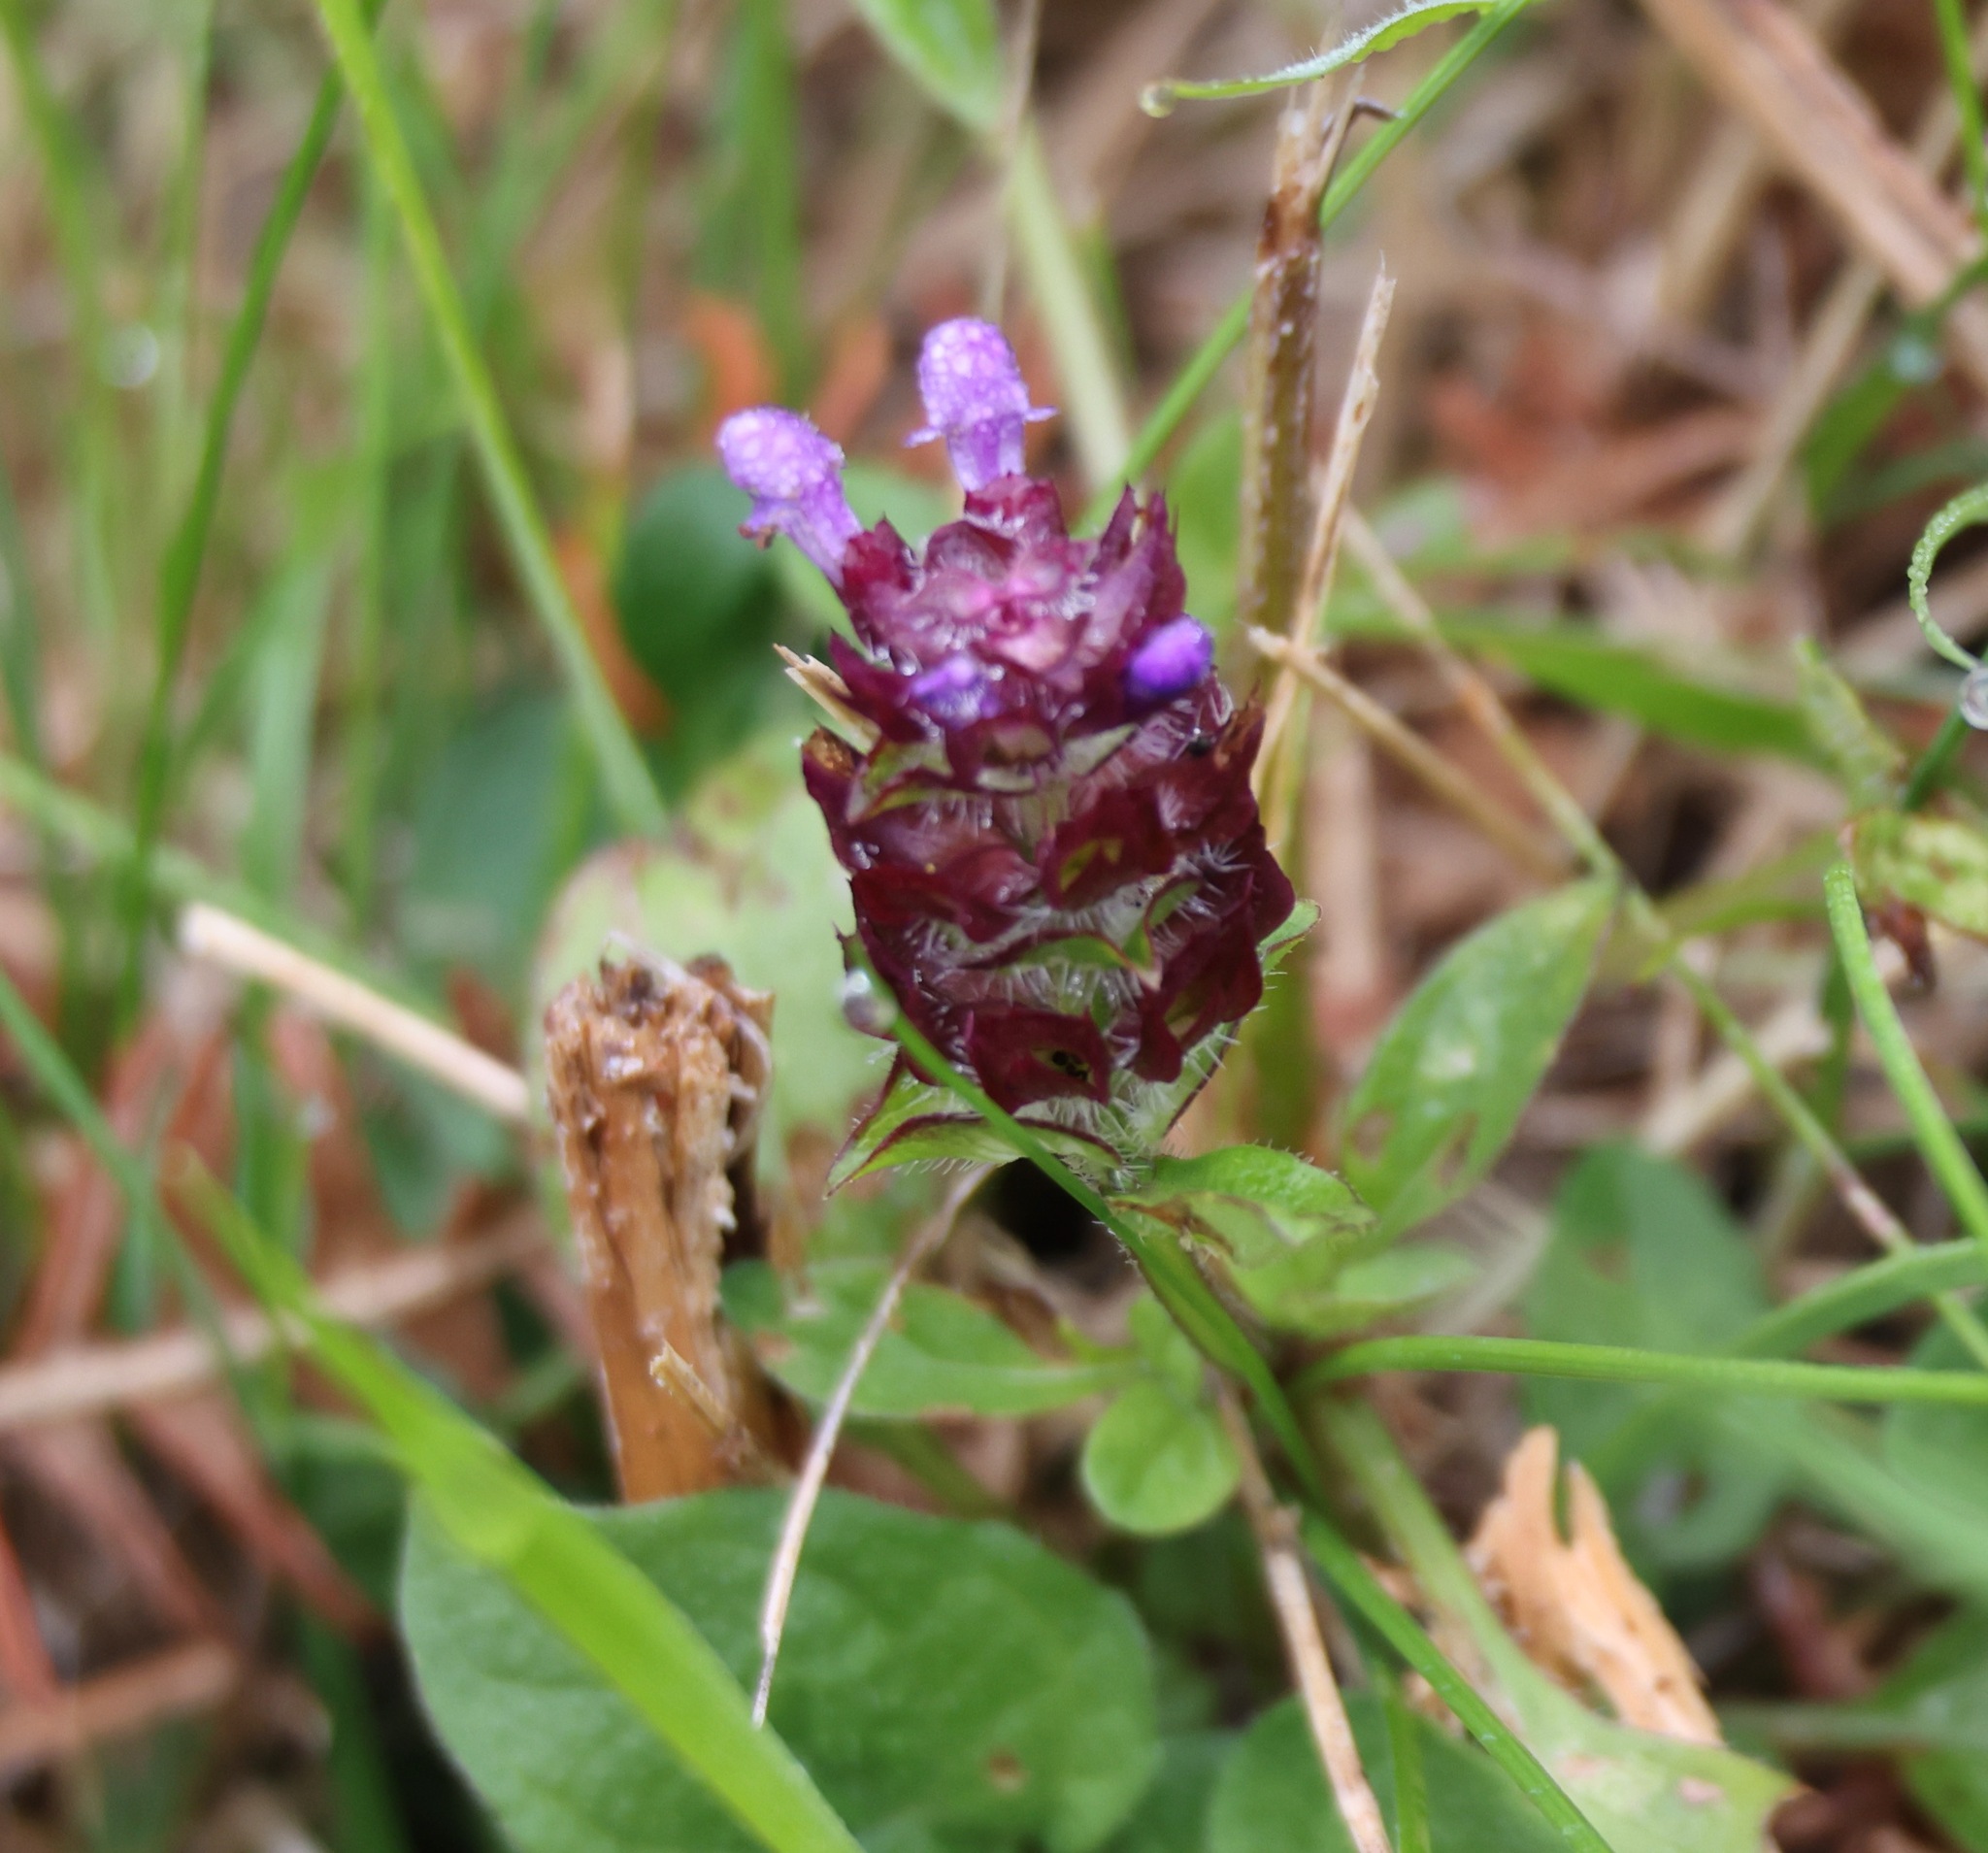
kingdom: Plantae
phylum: Tracheophyta
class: Magnoliopsida
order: Lamiales
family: Lamiaceae
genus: Prunella
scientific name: Prunella vulgaris
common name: Heal-all
